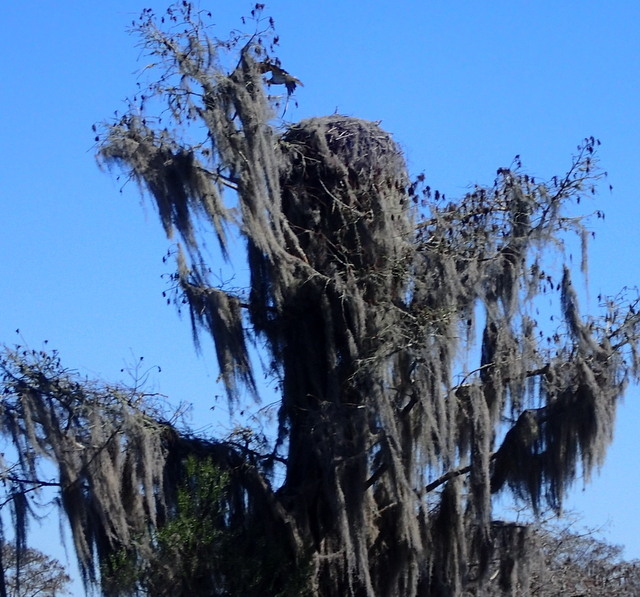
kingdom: Animalia
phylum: Chordata
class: Aves
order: Accipitriformes
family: Pandionidae
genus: Pandion
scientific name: Pandion haliaetus
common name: Osprey
